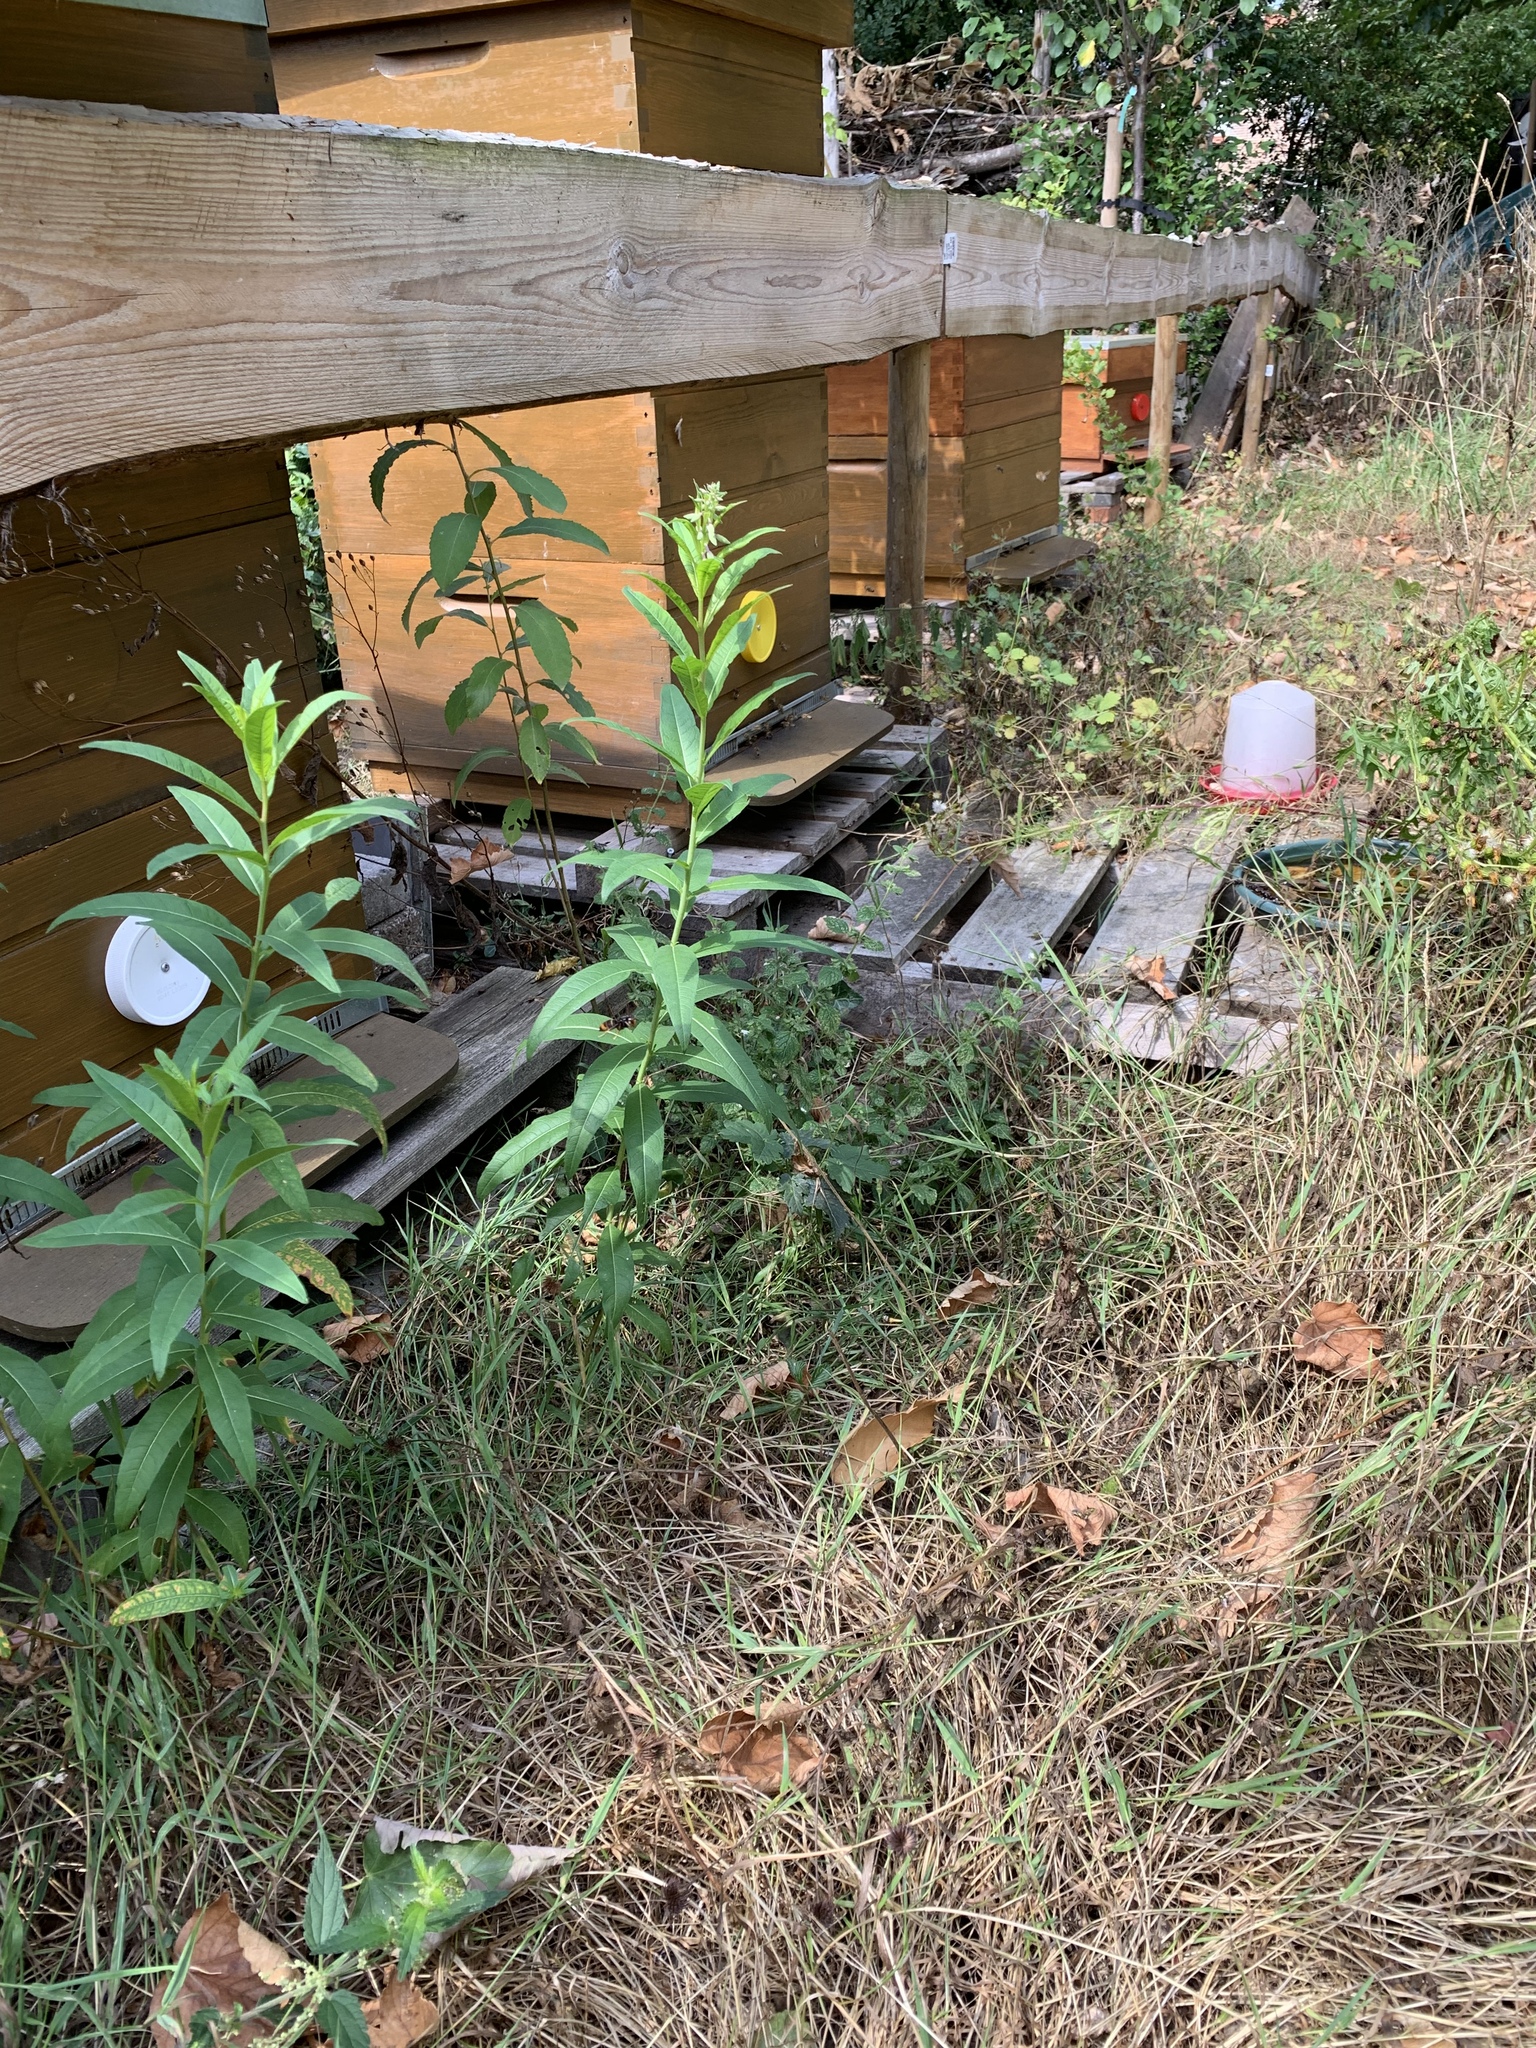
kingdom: Animalia
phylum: Arthropoda
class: Insecta
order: Hymenoptera
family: Vespidae
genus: Vespa
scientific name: Vespa velutina
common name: Asian hornet
